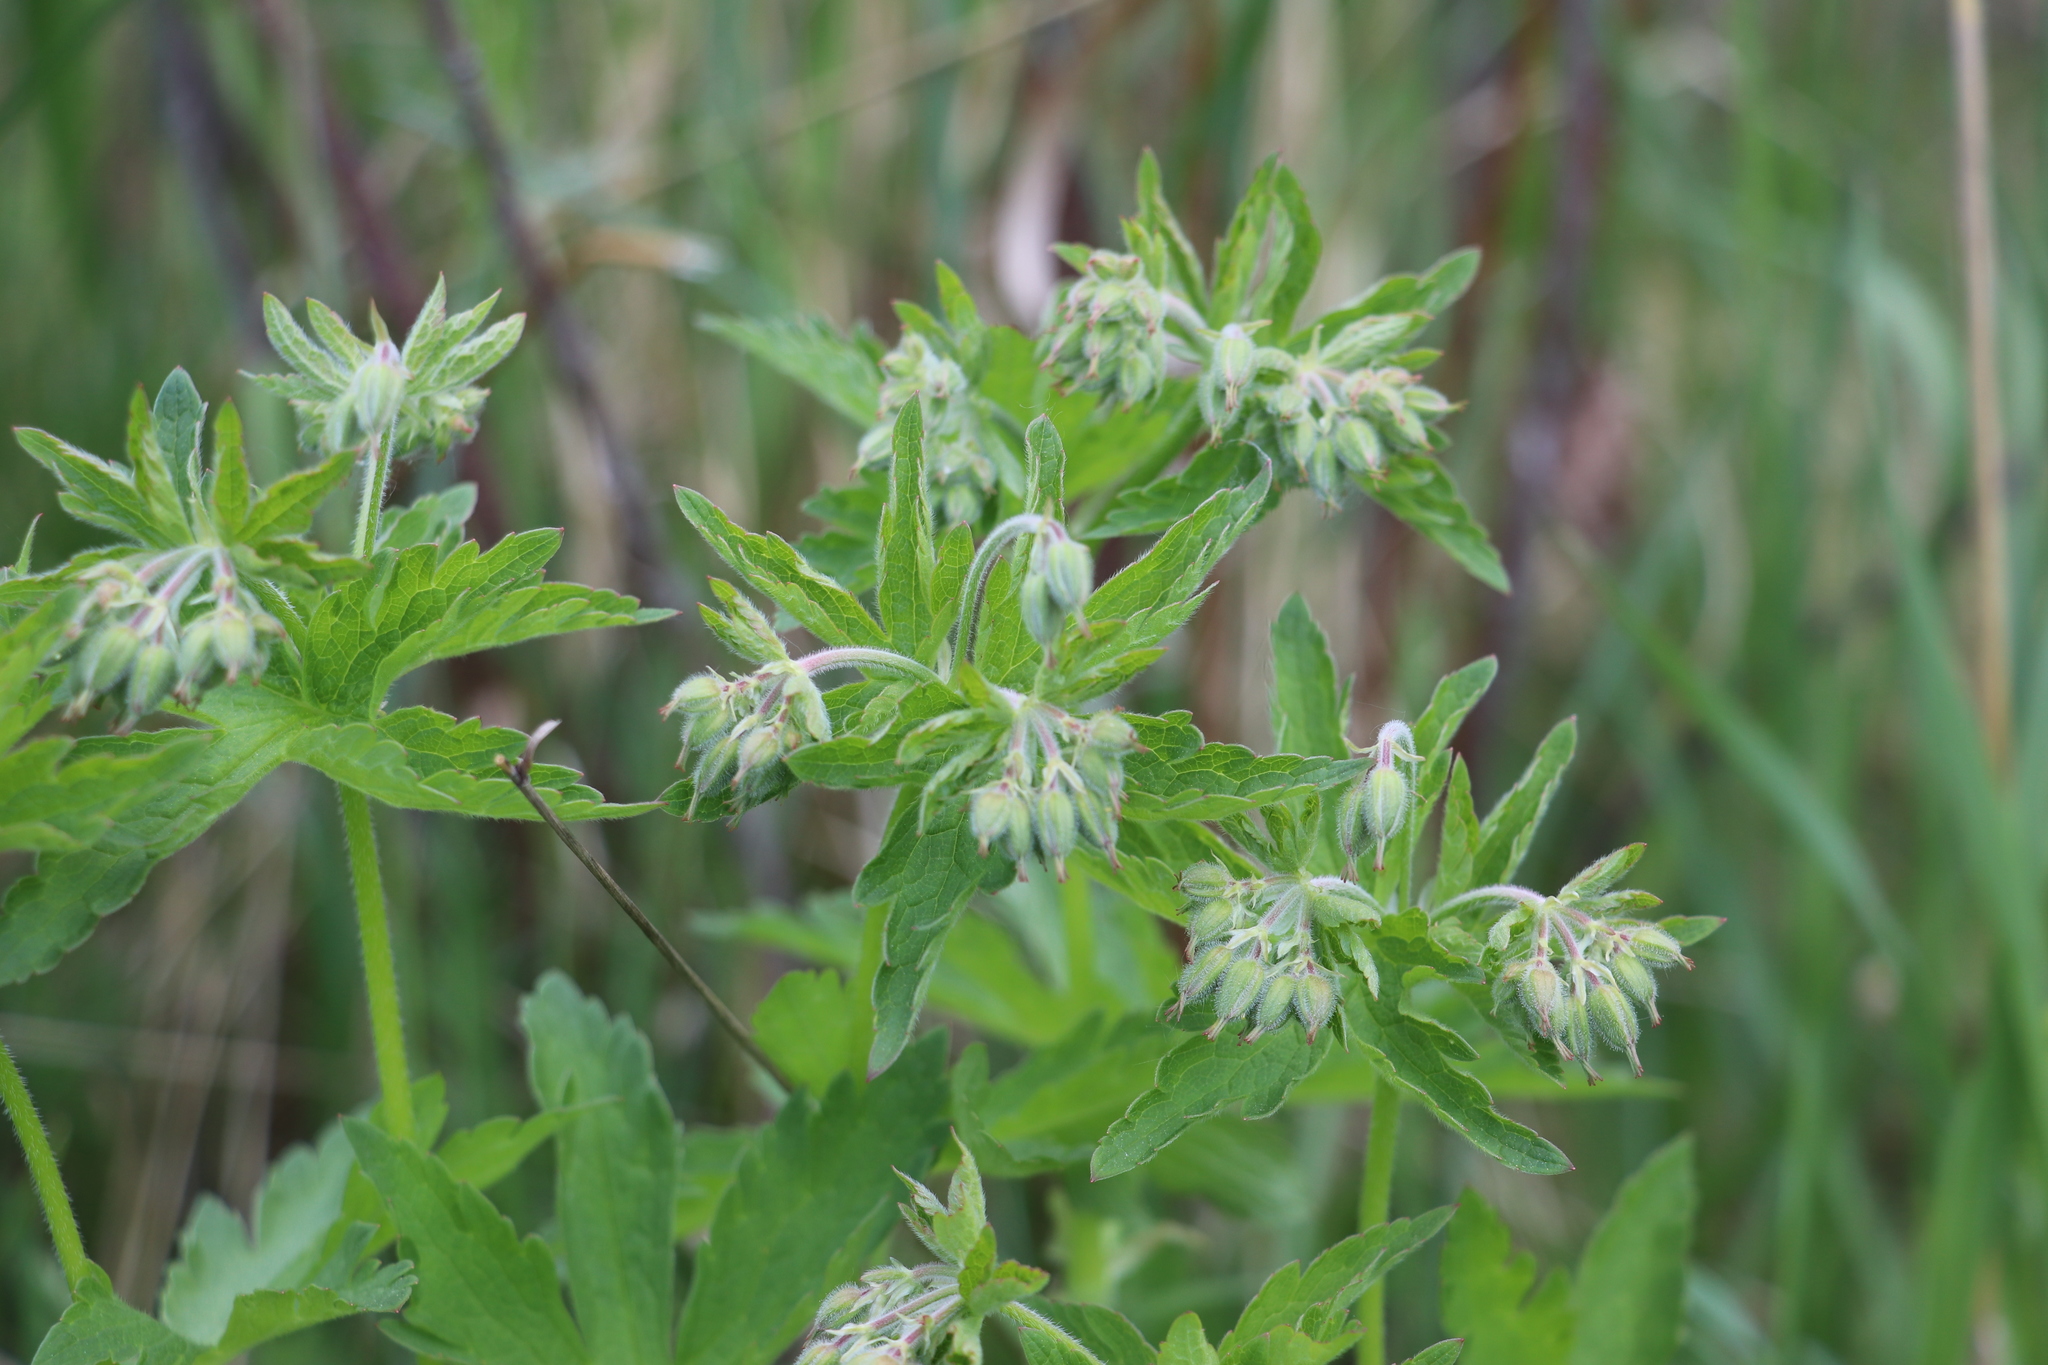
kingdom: Plantae
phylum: Tracheophyta
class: Magnoliopsida
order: Geraniales
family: Geraniaceae
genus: Geranium
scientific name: Geranium sylvaticum
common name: Wood crane's-bill
